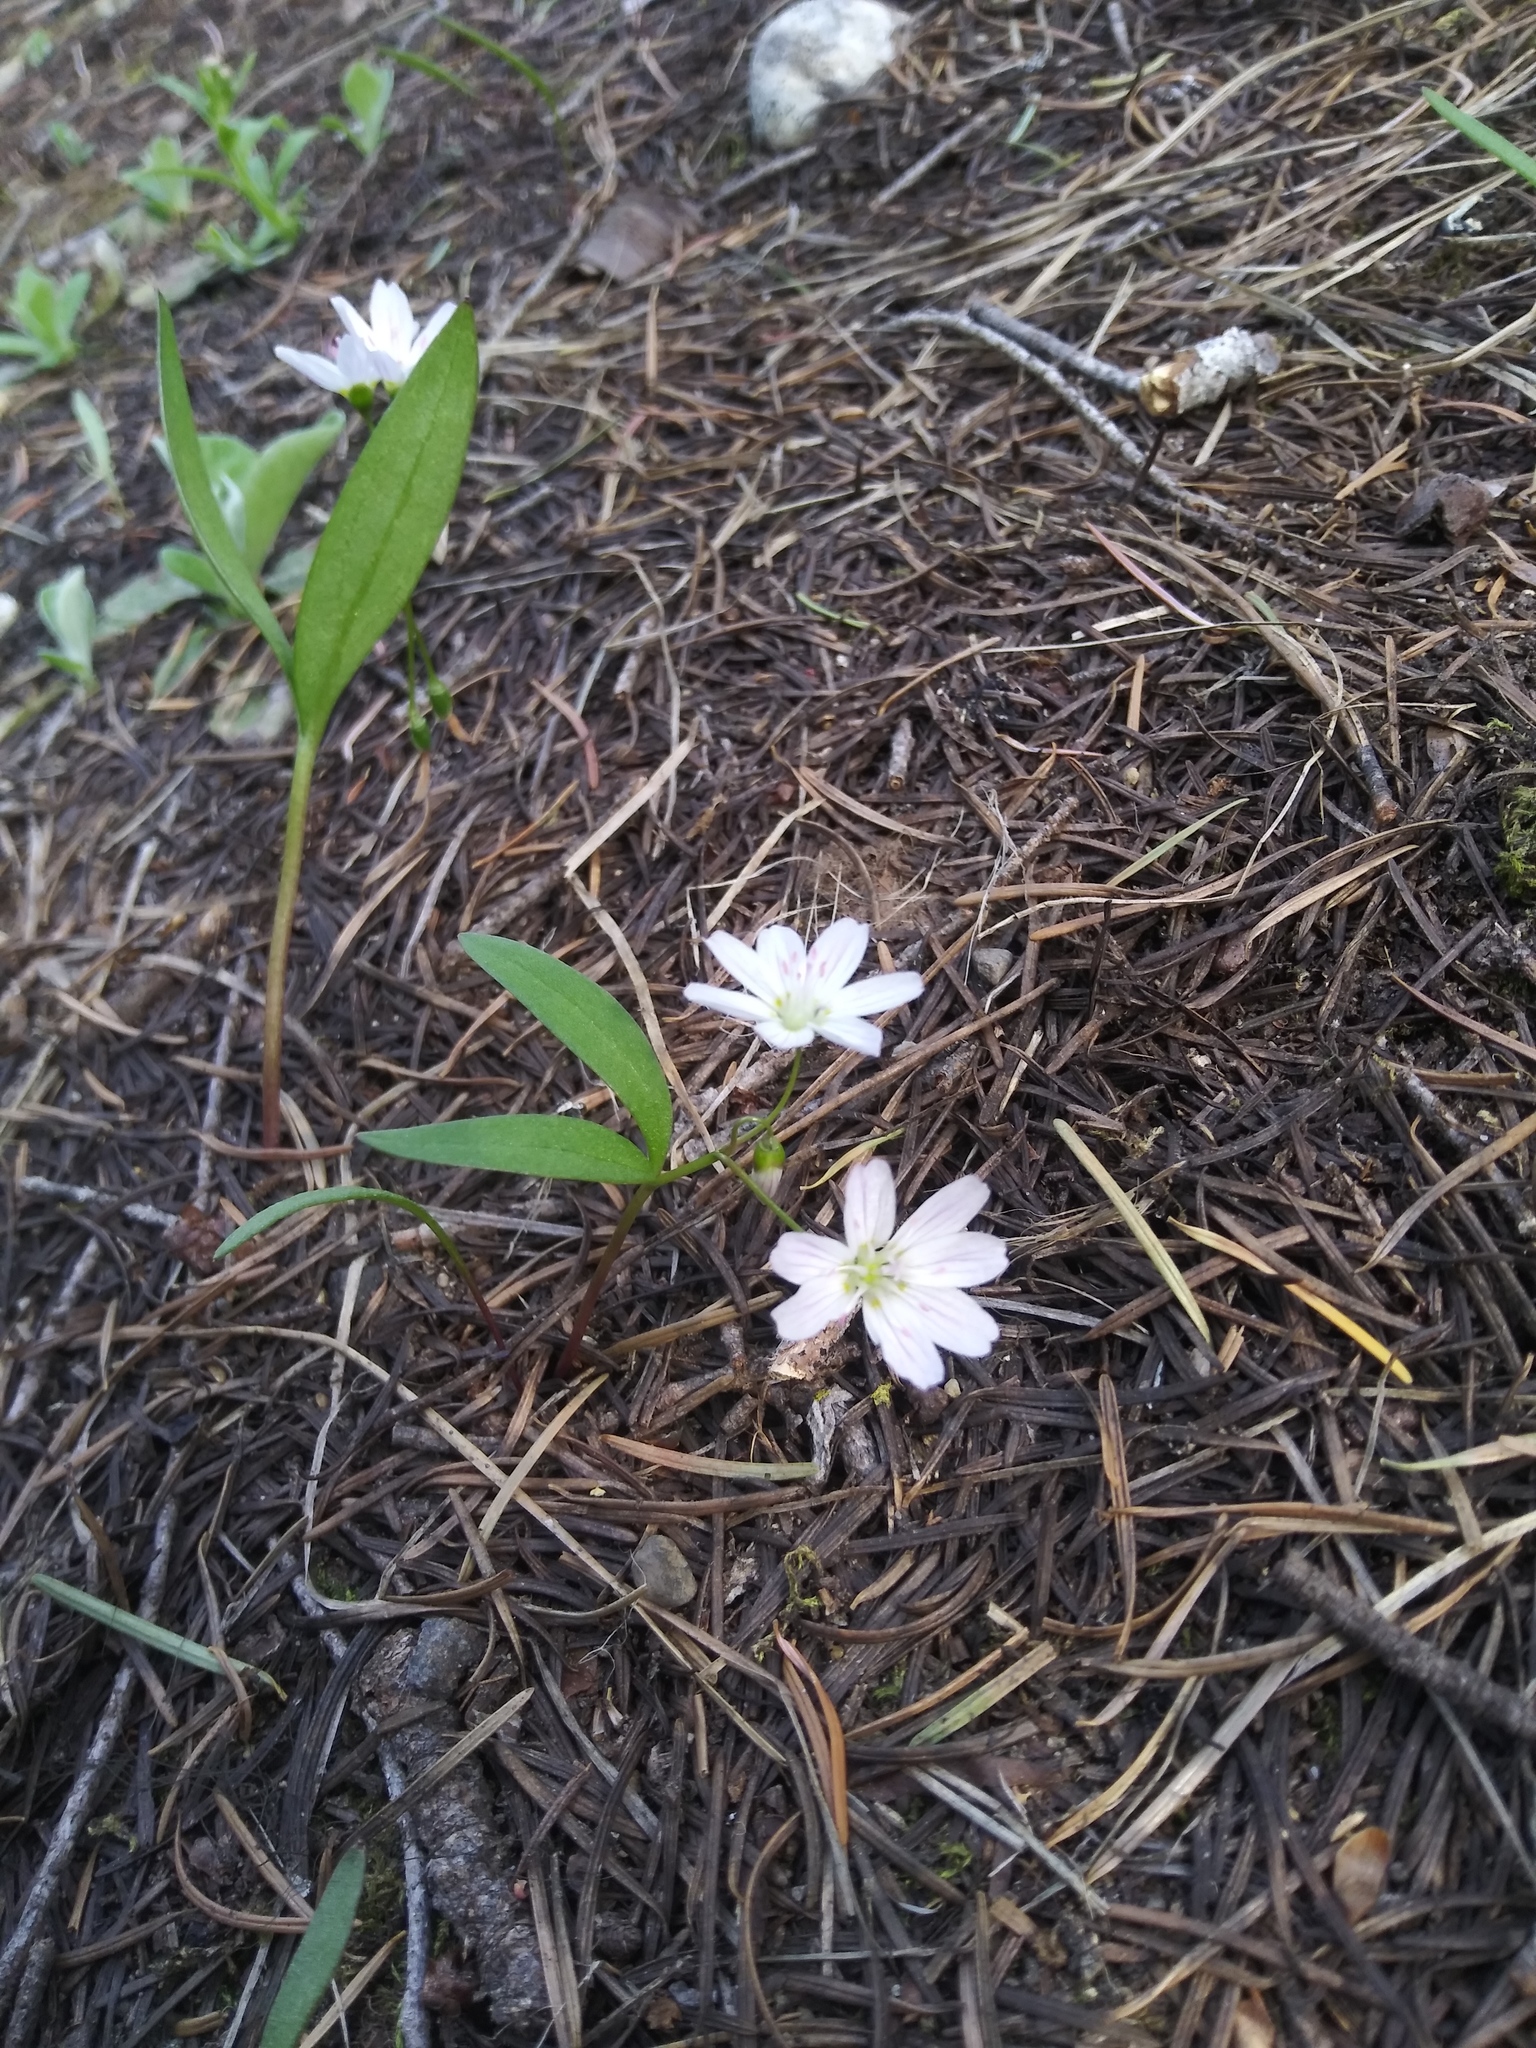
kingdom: Plantae
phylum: Tracheophyta
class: Magnoliopsida
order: Caryophyllales
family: Montiaceae
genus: Claytonia
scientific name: Claytonia lanceolata
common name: Western spring-beauty
